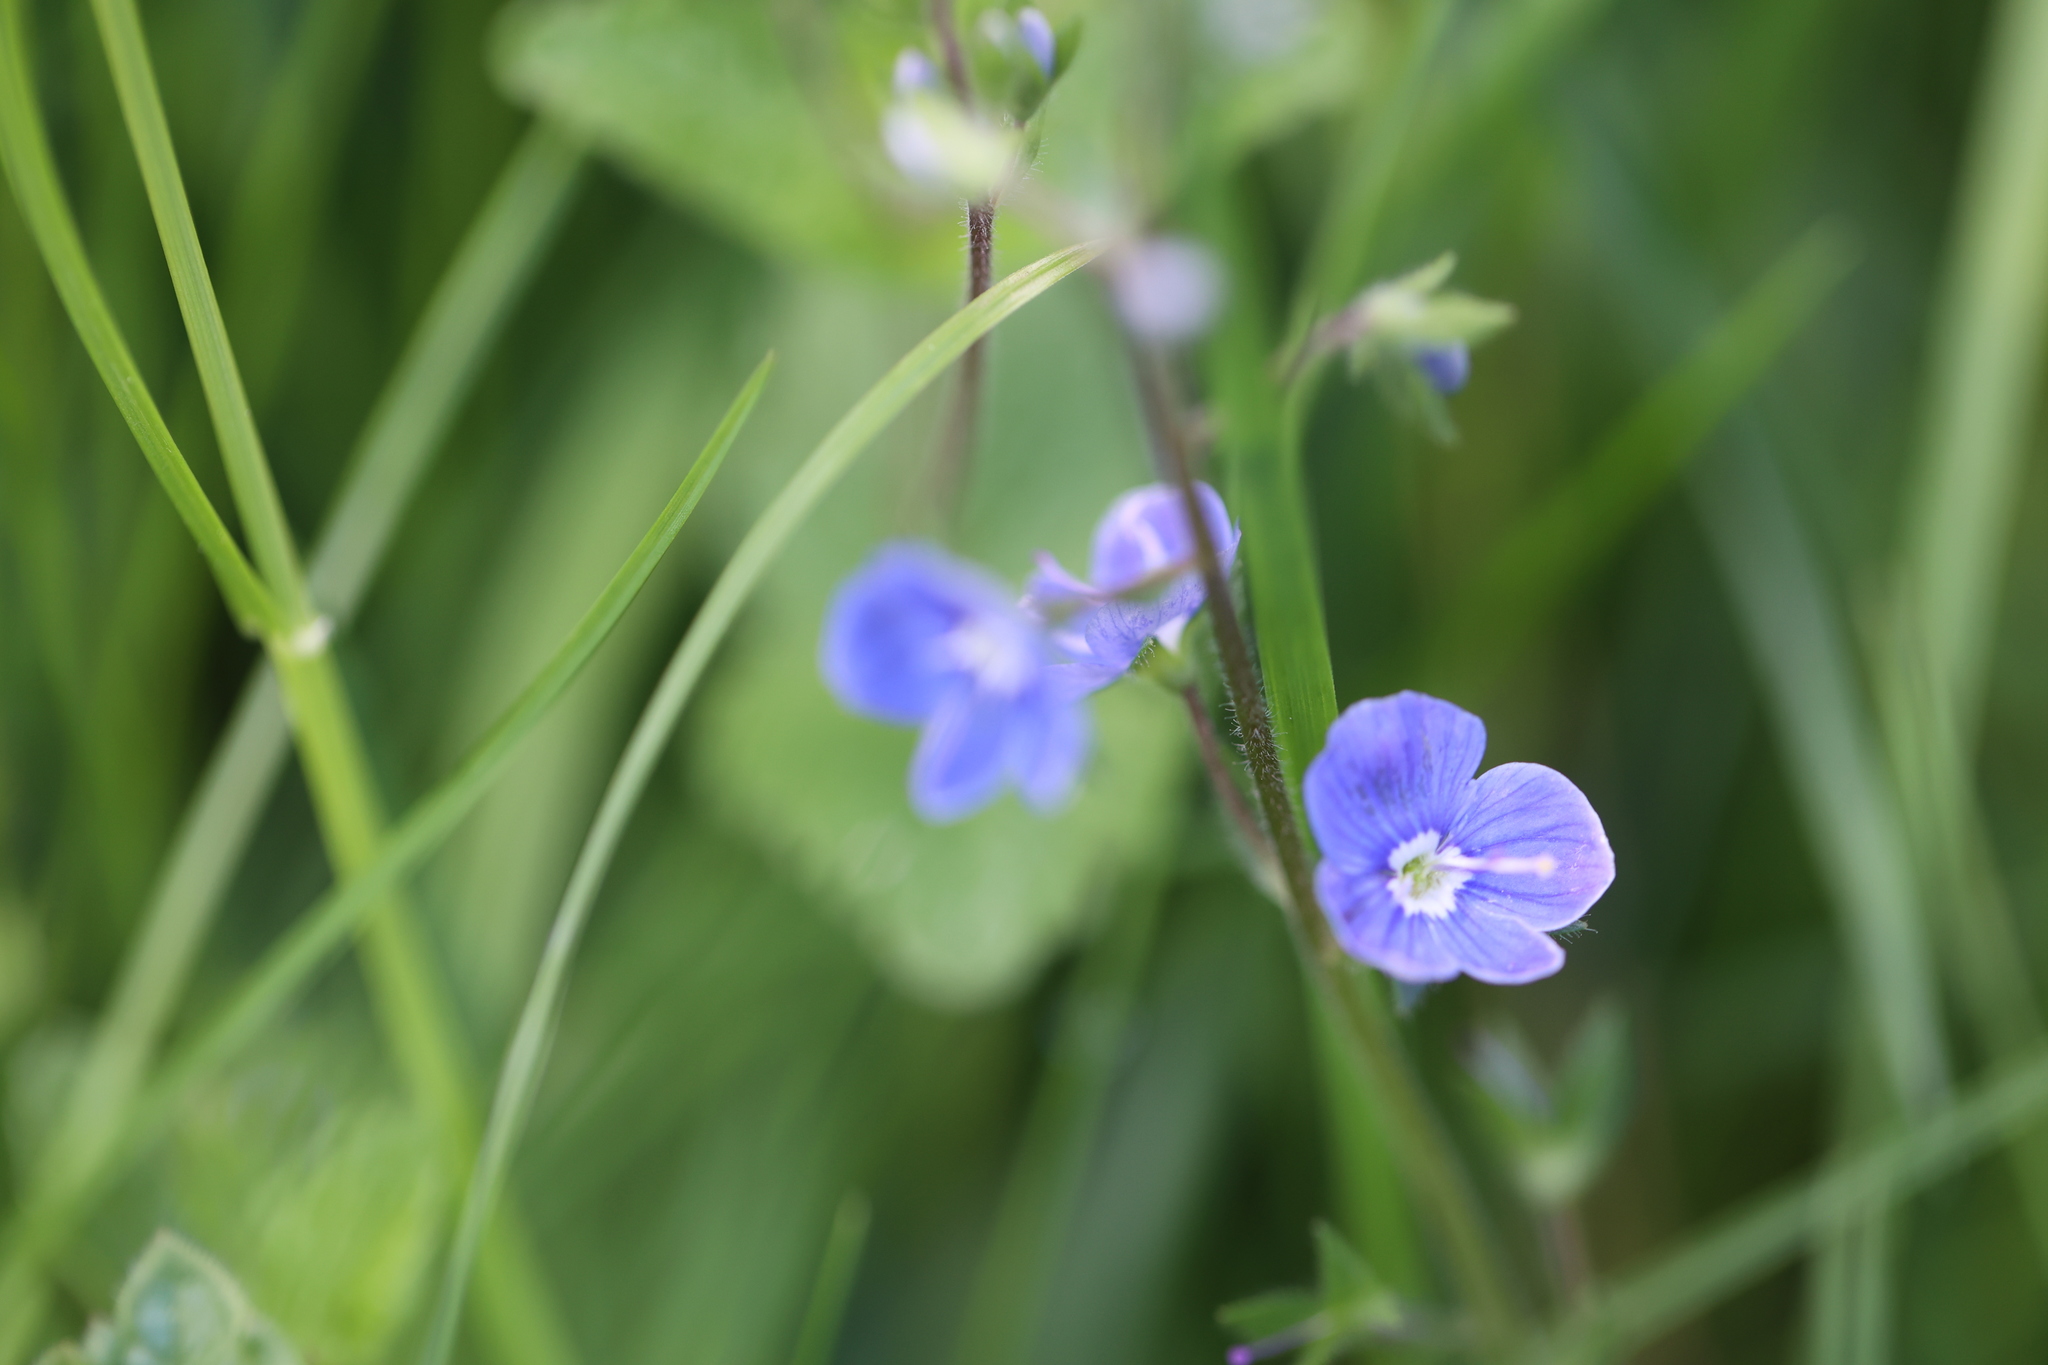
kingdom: Plantae
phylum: Tracheophyta
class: Magnoliopsida
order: Lamiales
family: Plantaginaceae
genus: Veronica
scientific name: Veronica chamaedrys
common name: Germander speedwell
